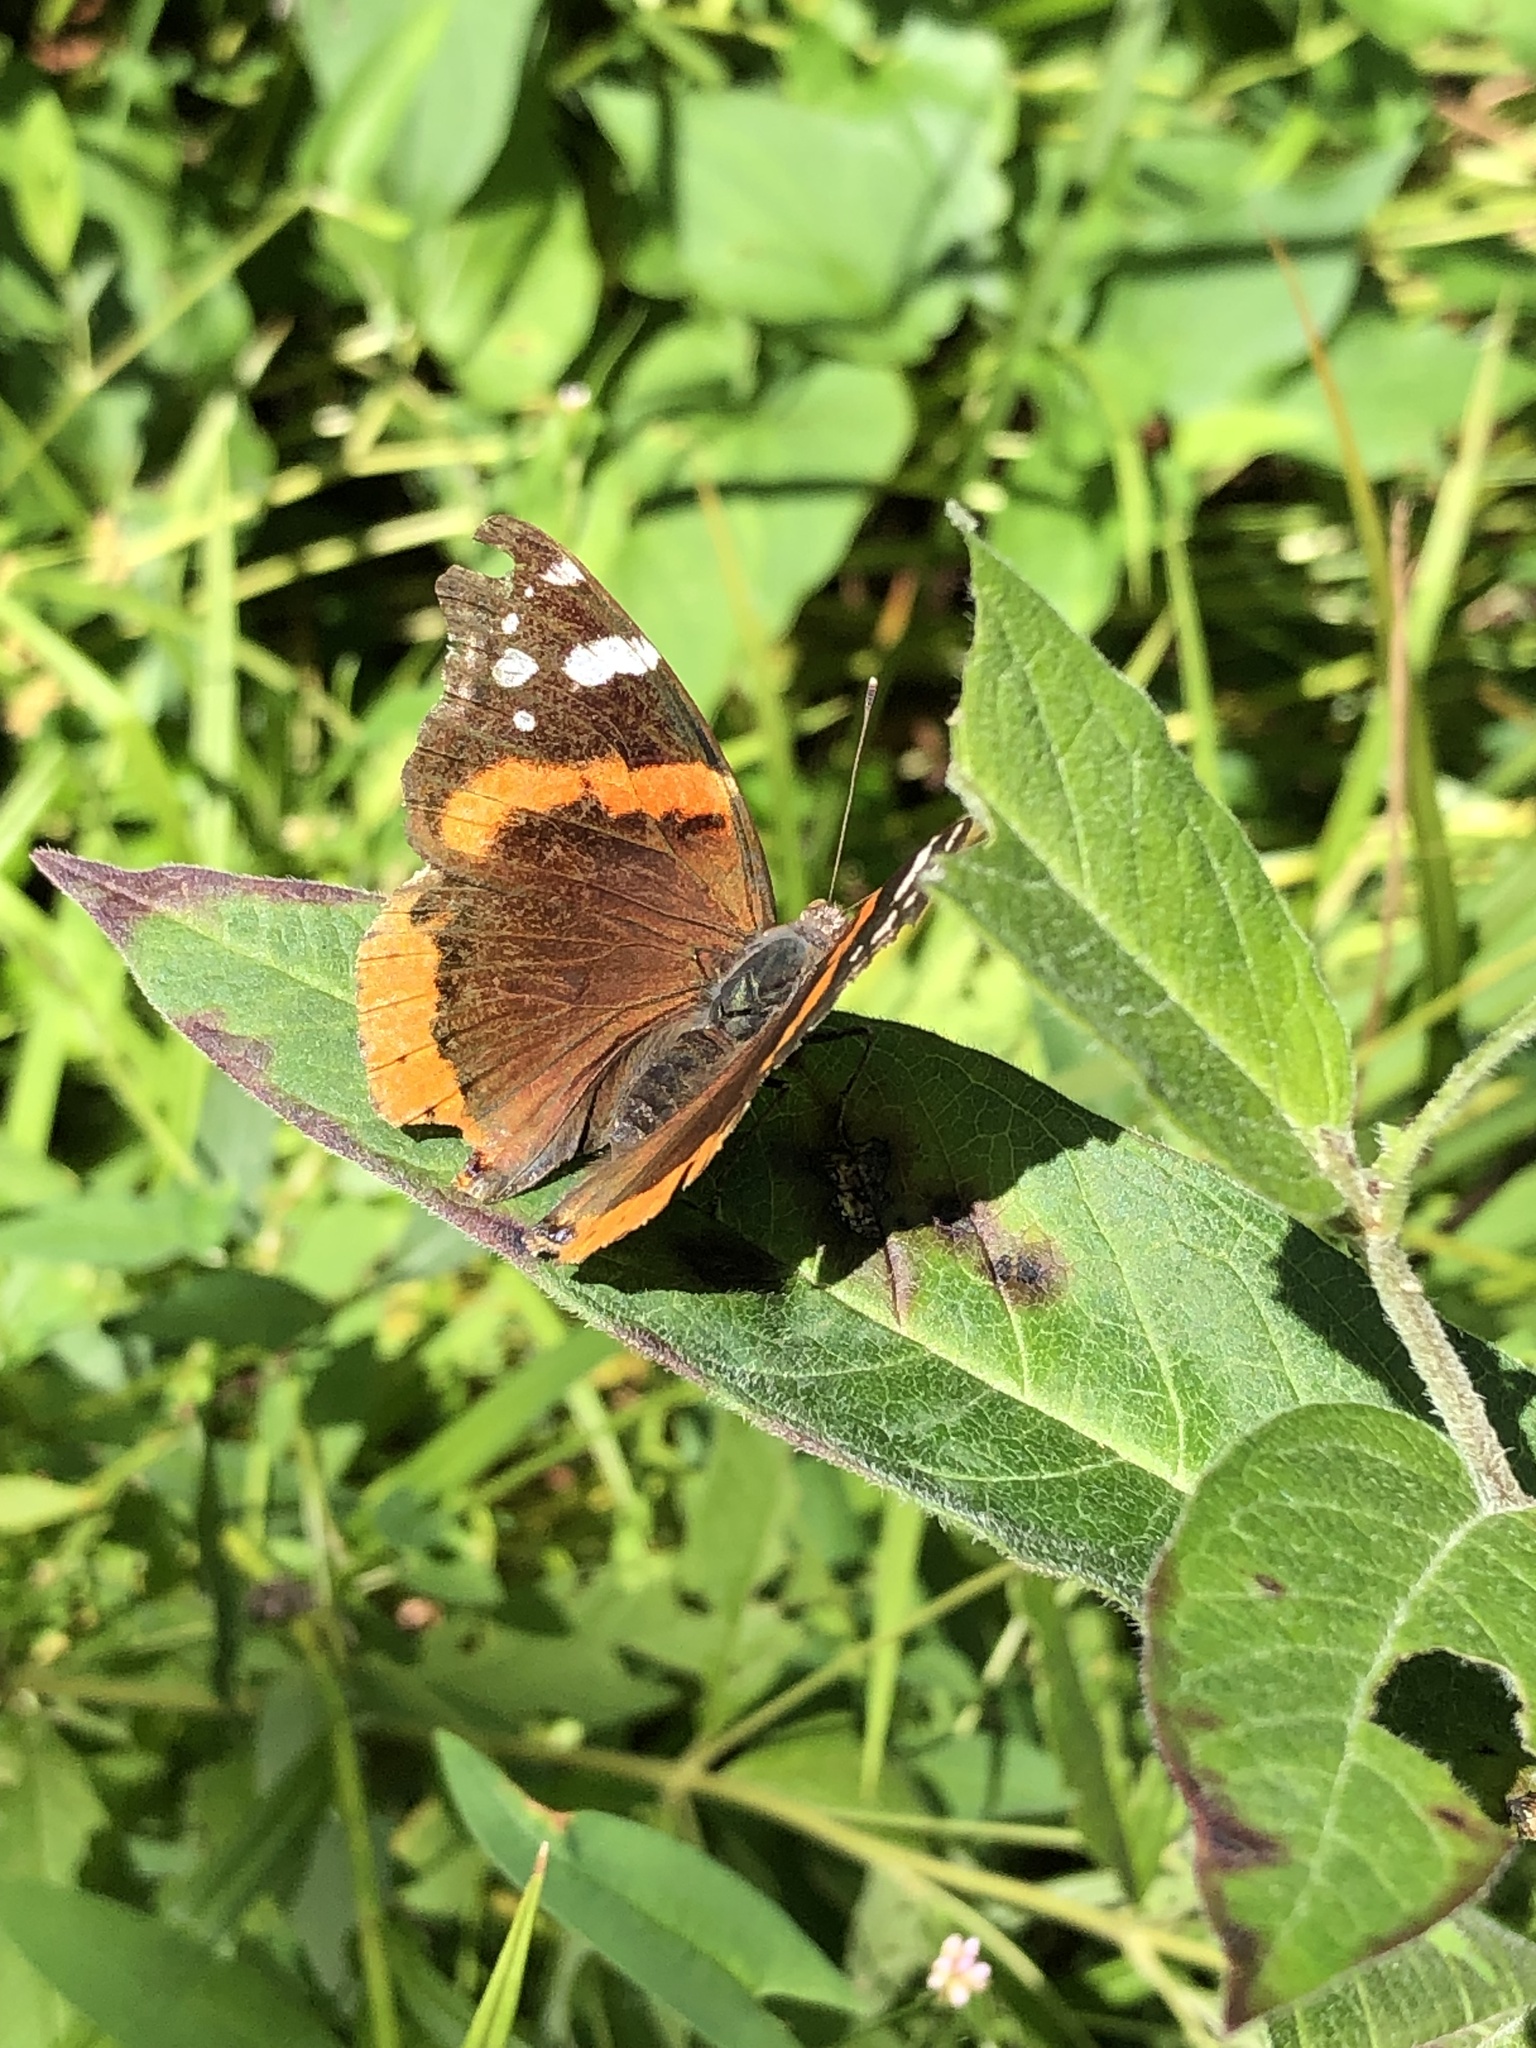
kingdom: Animalia
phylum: Arthropoda
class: Insecta
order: Lepidoptera
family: Nymphalidae
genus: Vanessa
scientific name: Vanessa atalanta
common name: Red admiral
